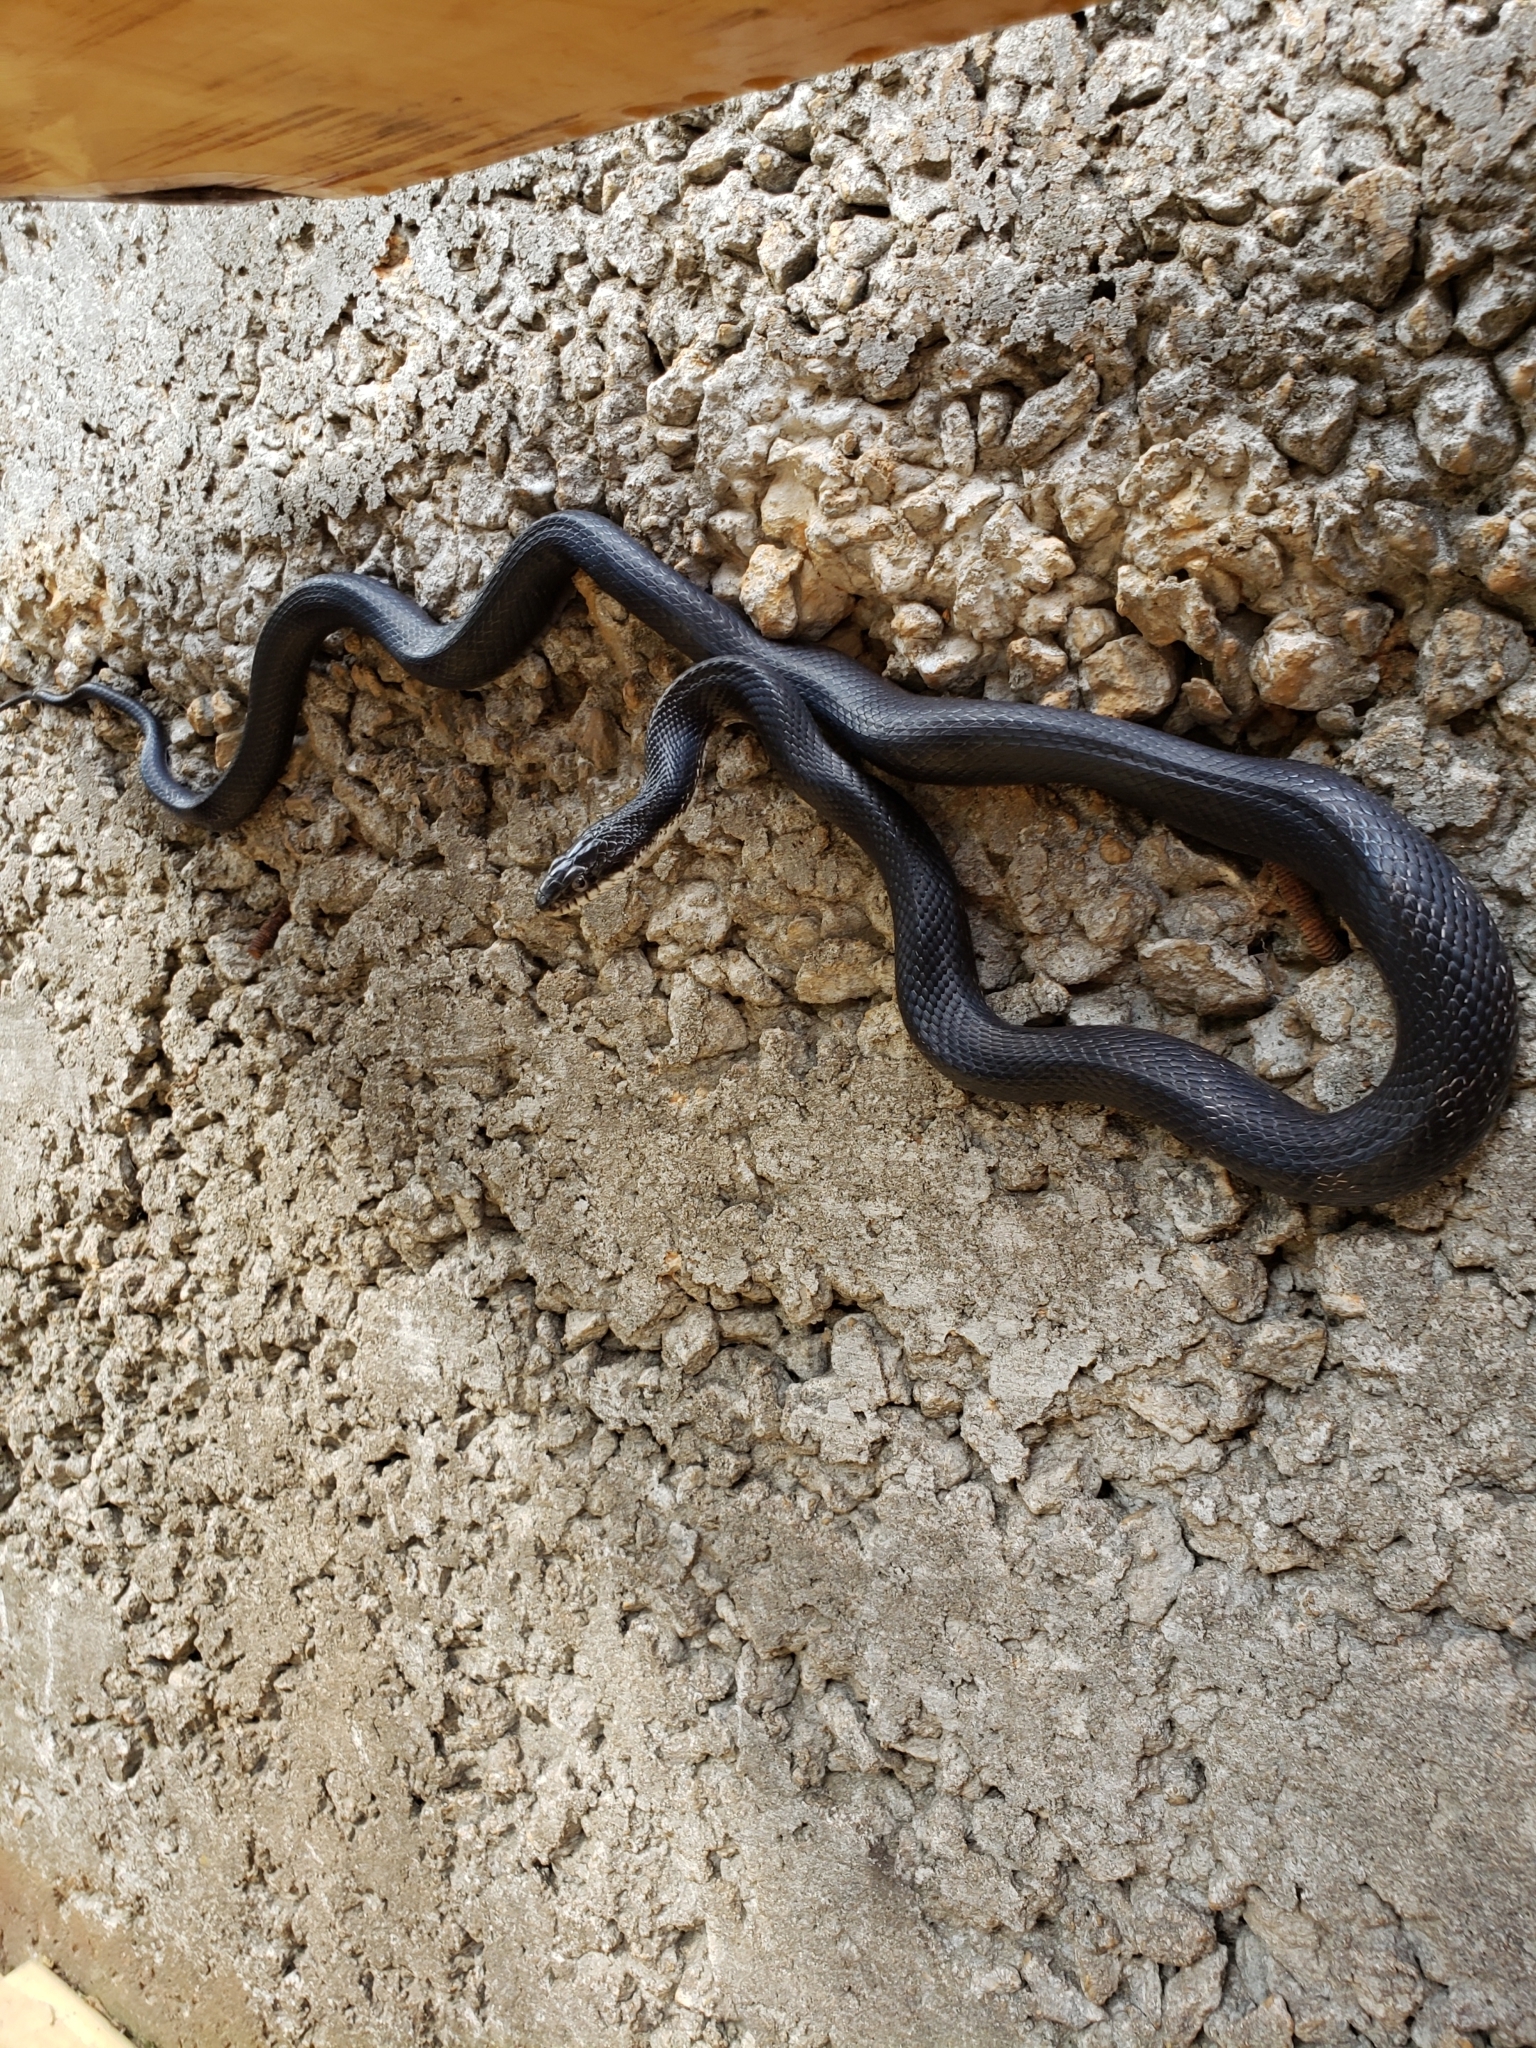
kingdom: Animalia
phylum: Chordata
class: Squamata
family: Colubridae
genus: Pantherophis
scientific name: Pantherophis
